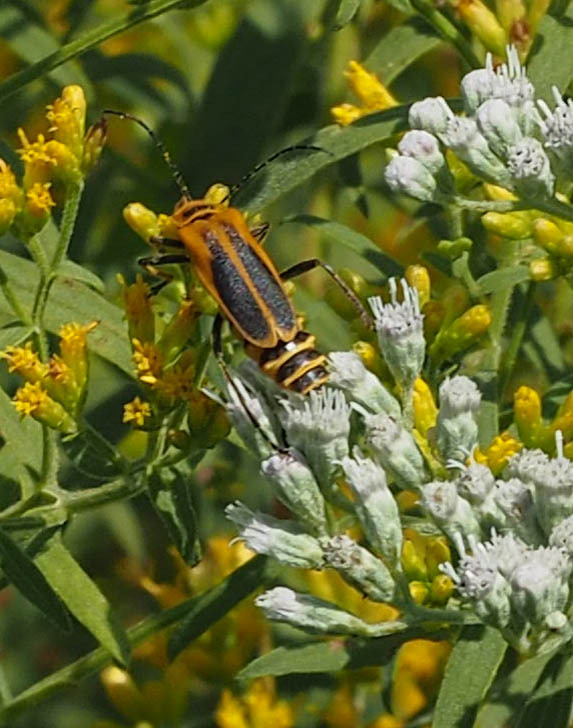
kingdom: Animalia
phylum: Arthropoda
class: Insecta
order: Coleoptera
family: Cantharidae
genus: Chauliognathus
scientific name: Chauliognathus pensylvanicus
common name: Goldenrod soldier beetle
